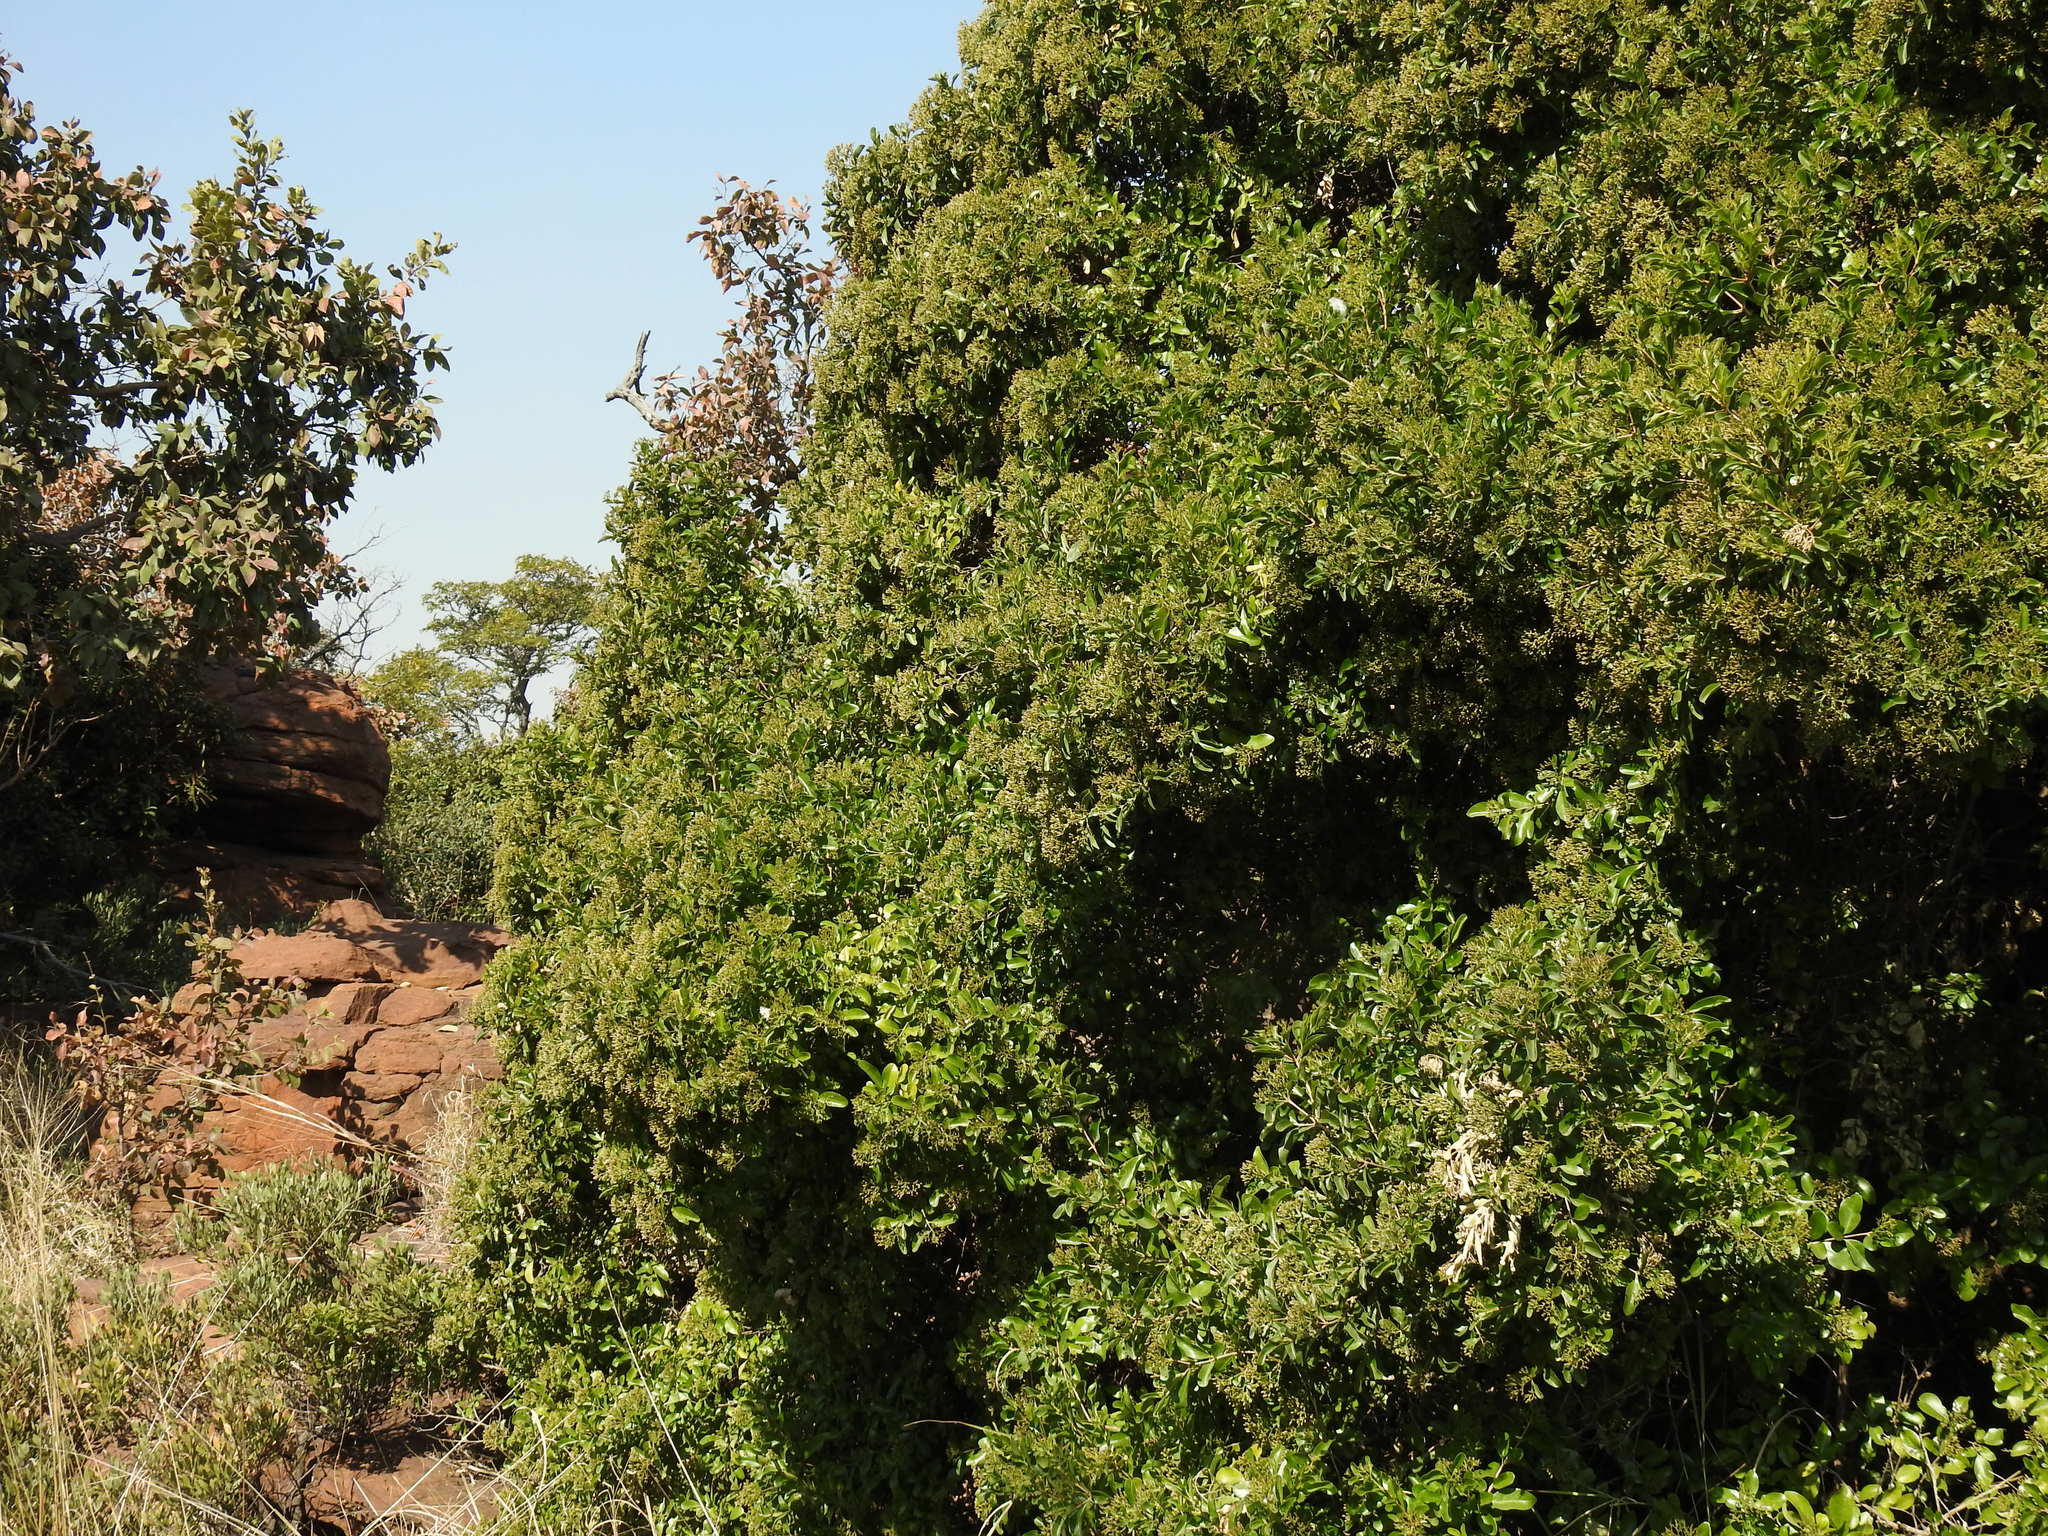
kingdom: Plantae
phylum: Tracheophyta
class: Magnoliopsida
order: Lamiales
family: Stilbaceae
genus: Nuxia
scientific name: Nuxia congesta
